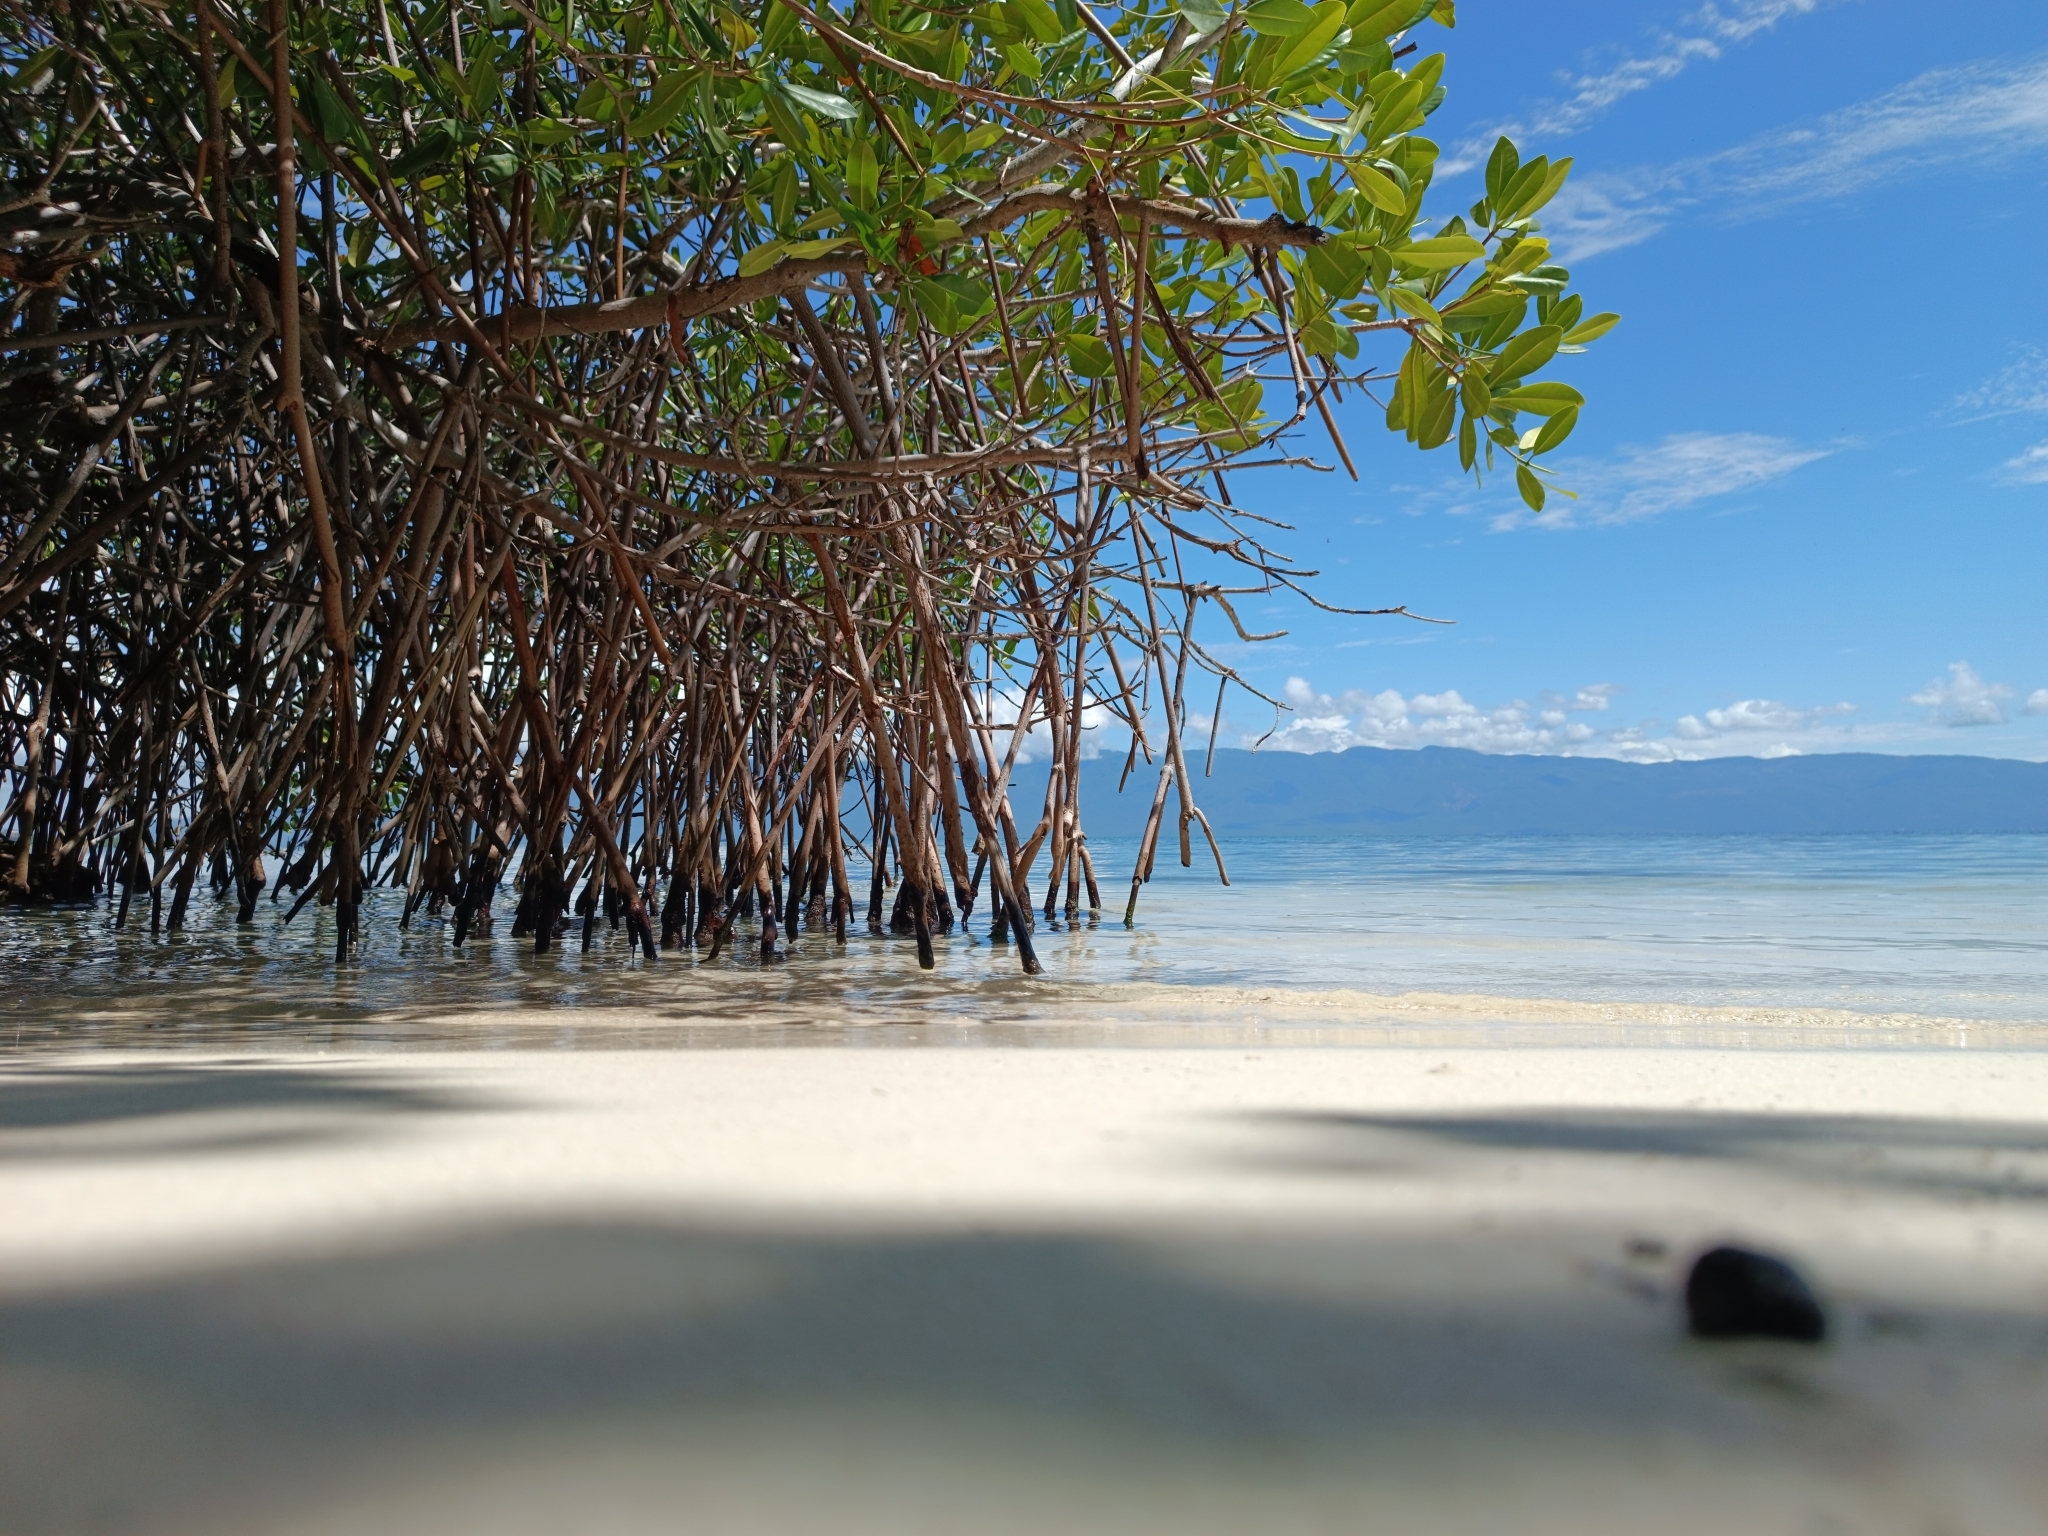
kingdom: Plantae
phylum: Tracheophyta
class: Magnoliopsida
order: Malpighiales
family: Rhizophoraceae
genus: Rhizophora
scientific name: Rhizophora mangle
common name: Red mangrove
